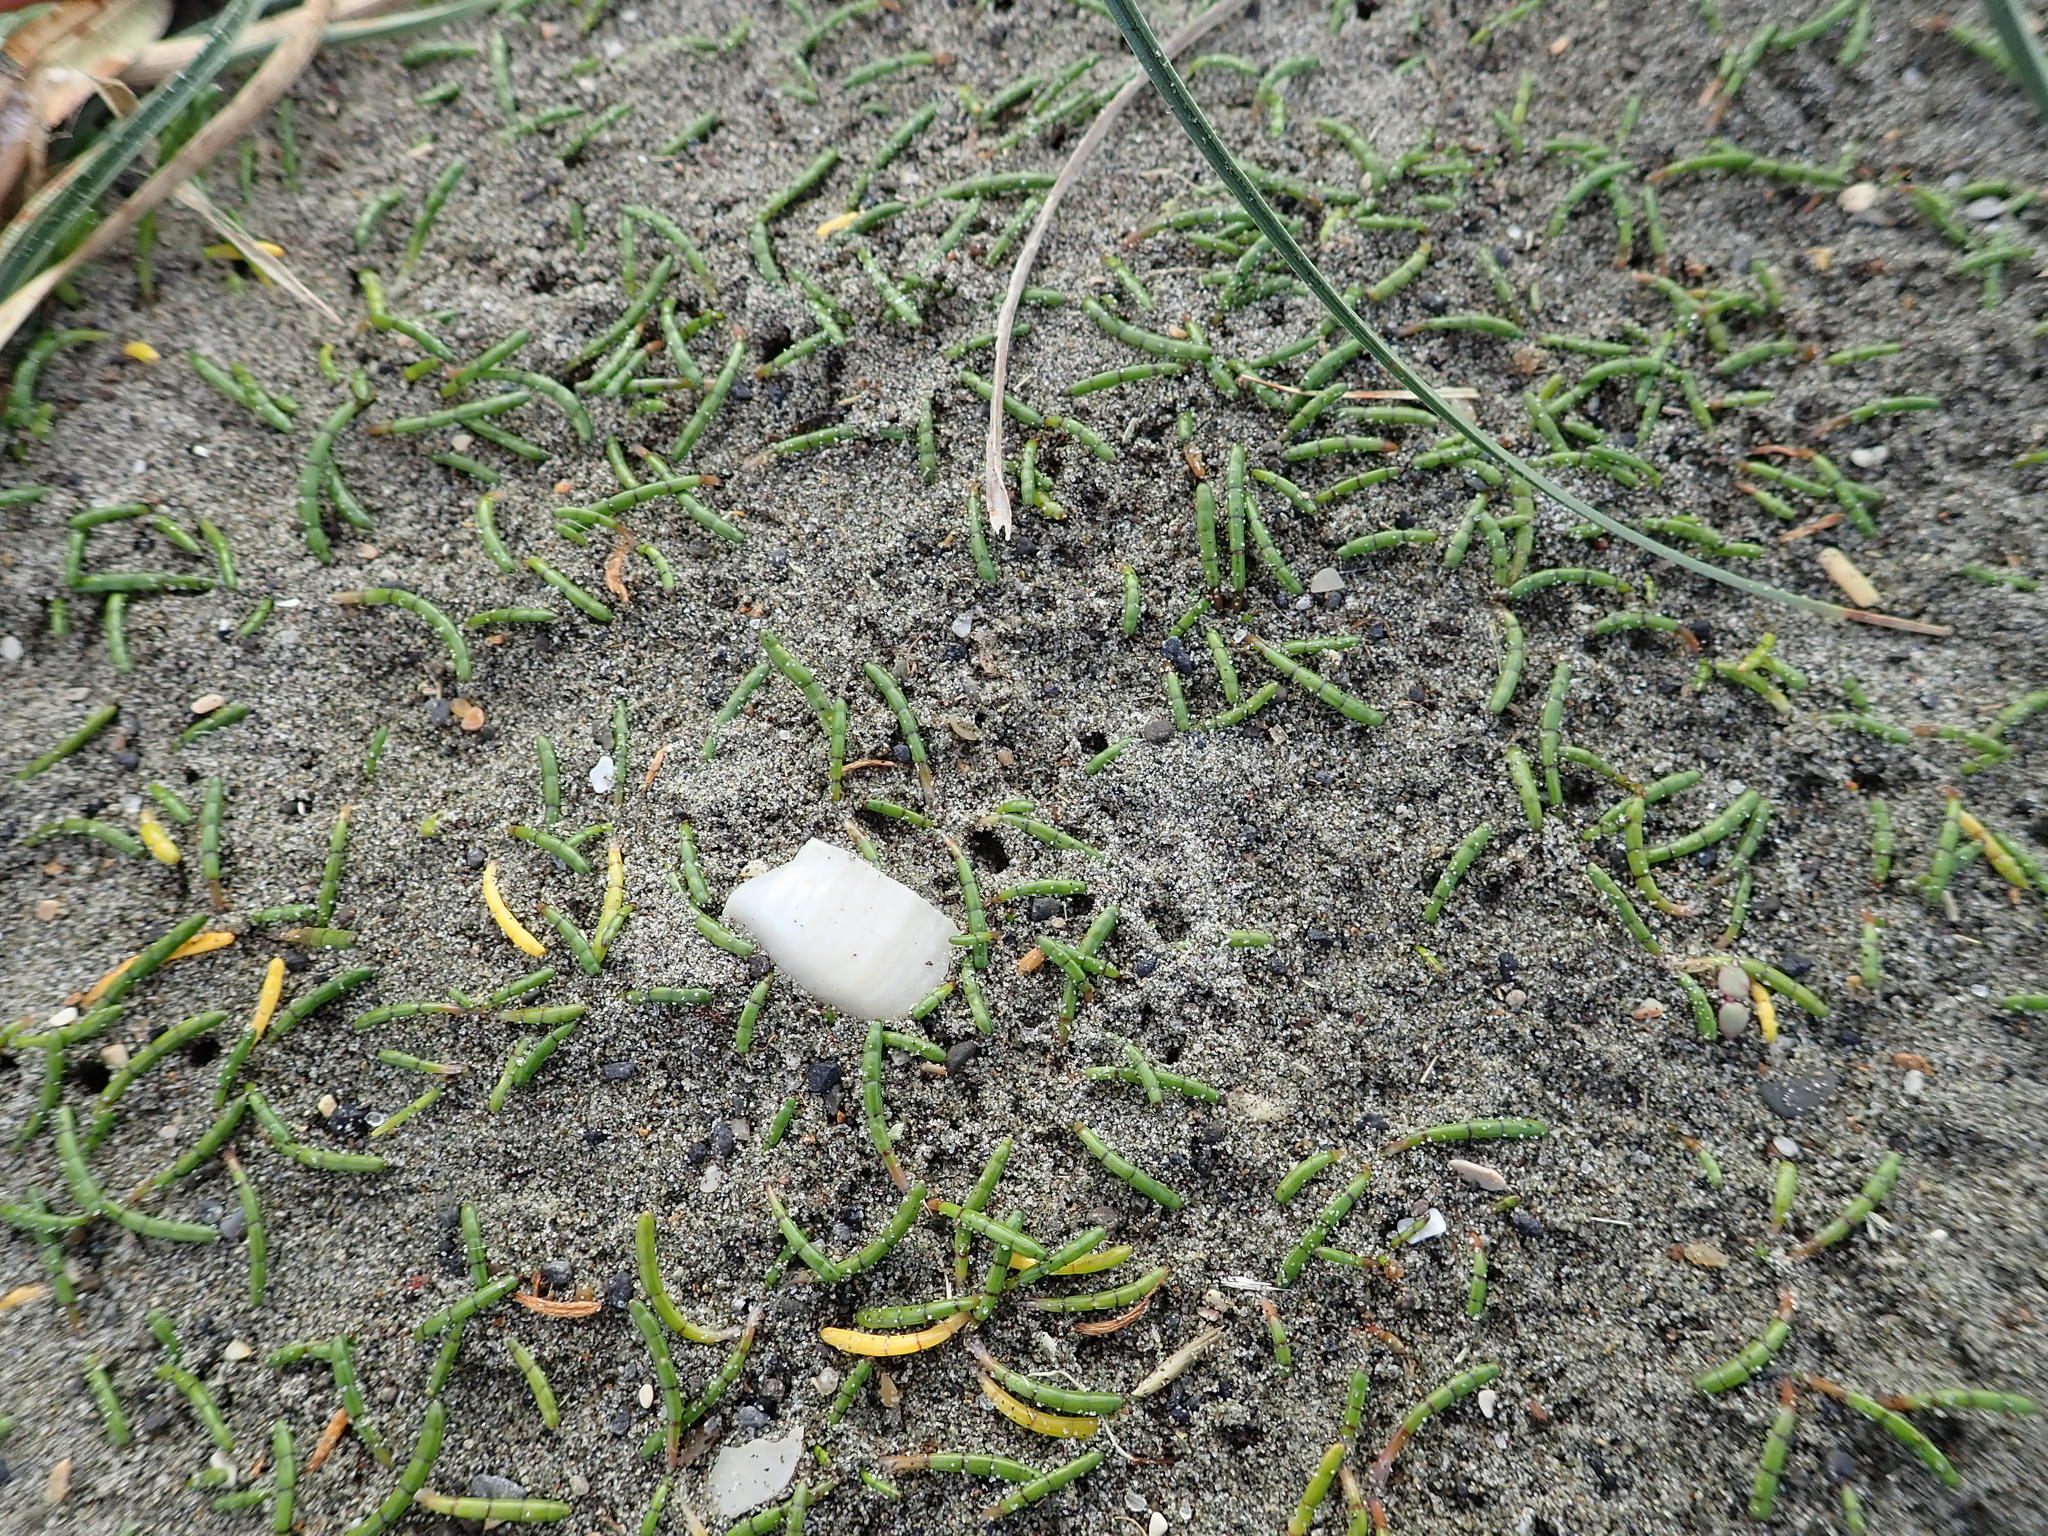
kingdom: Plantae
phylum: Tracheophyta
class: Magnoliopsida
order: Apiales
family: Apiaceae
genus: Lilaeopsis
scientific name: Lilaeopsis novae-zelandiae
